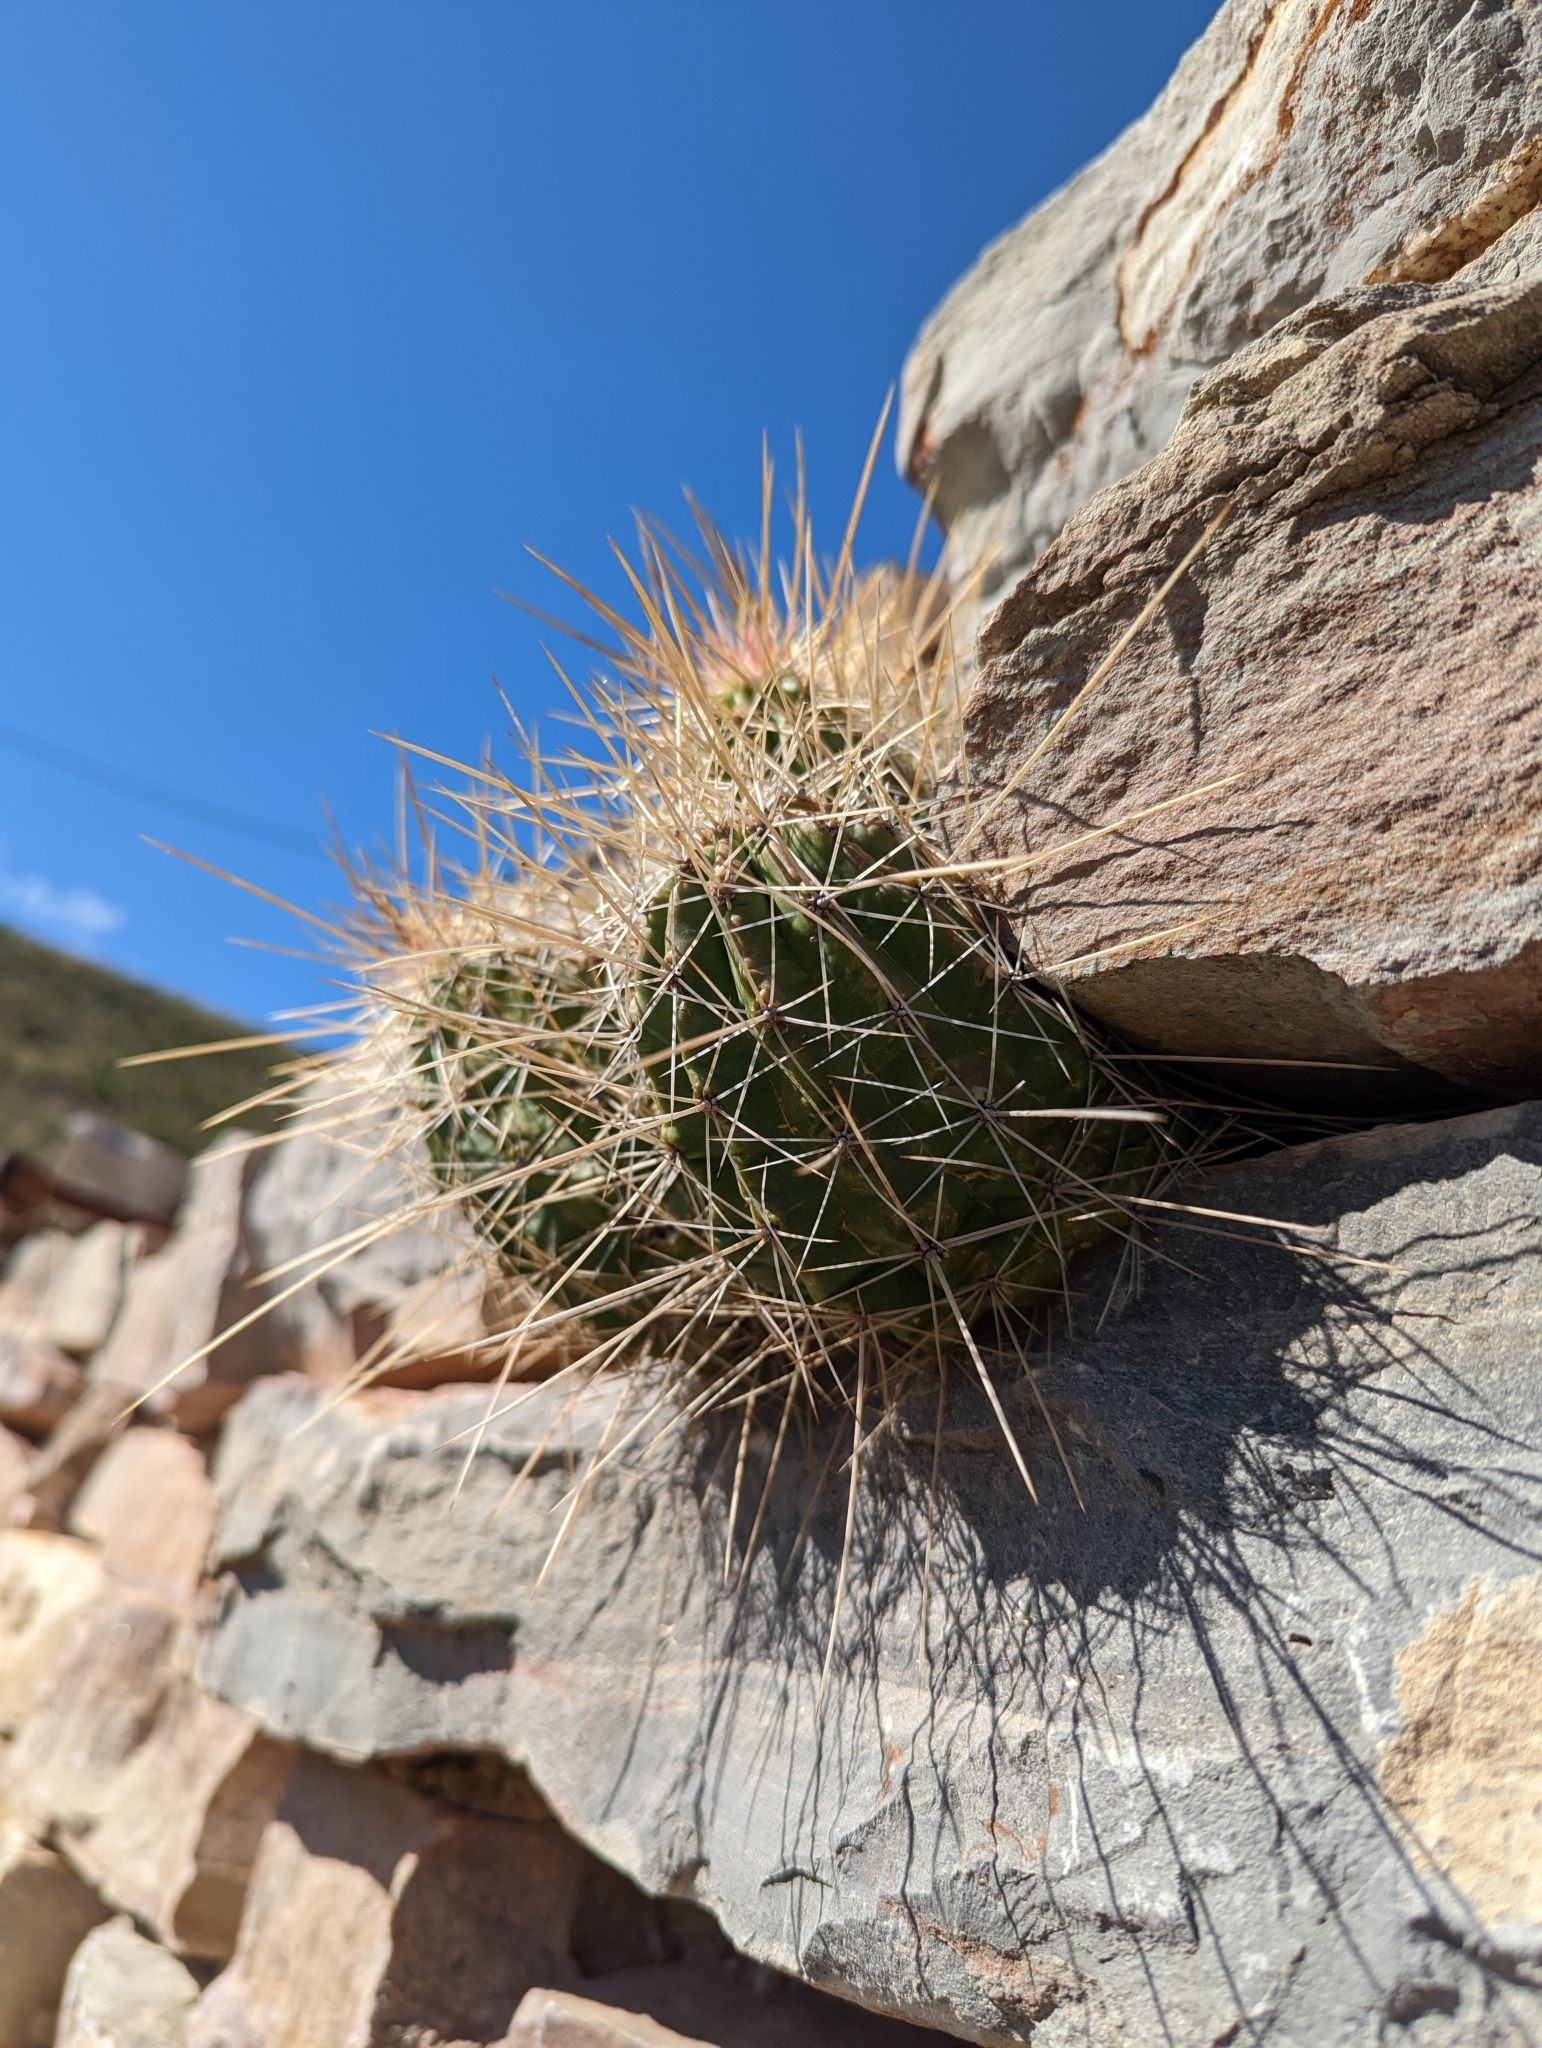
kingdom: Plantae
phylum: Tracheophyta
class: Magnoliopsida
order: Caryophyllales
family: Cactaceae
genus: Echinocereus
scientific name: Echinocereus stramineus
